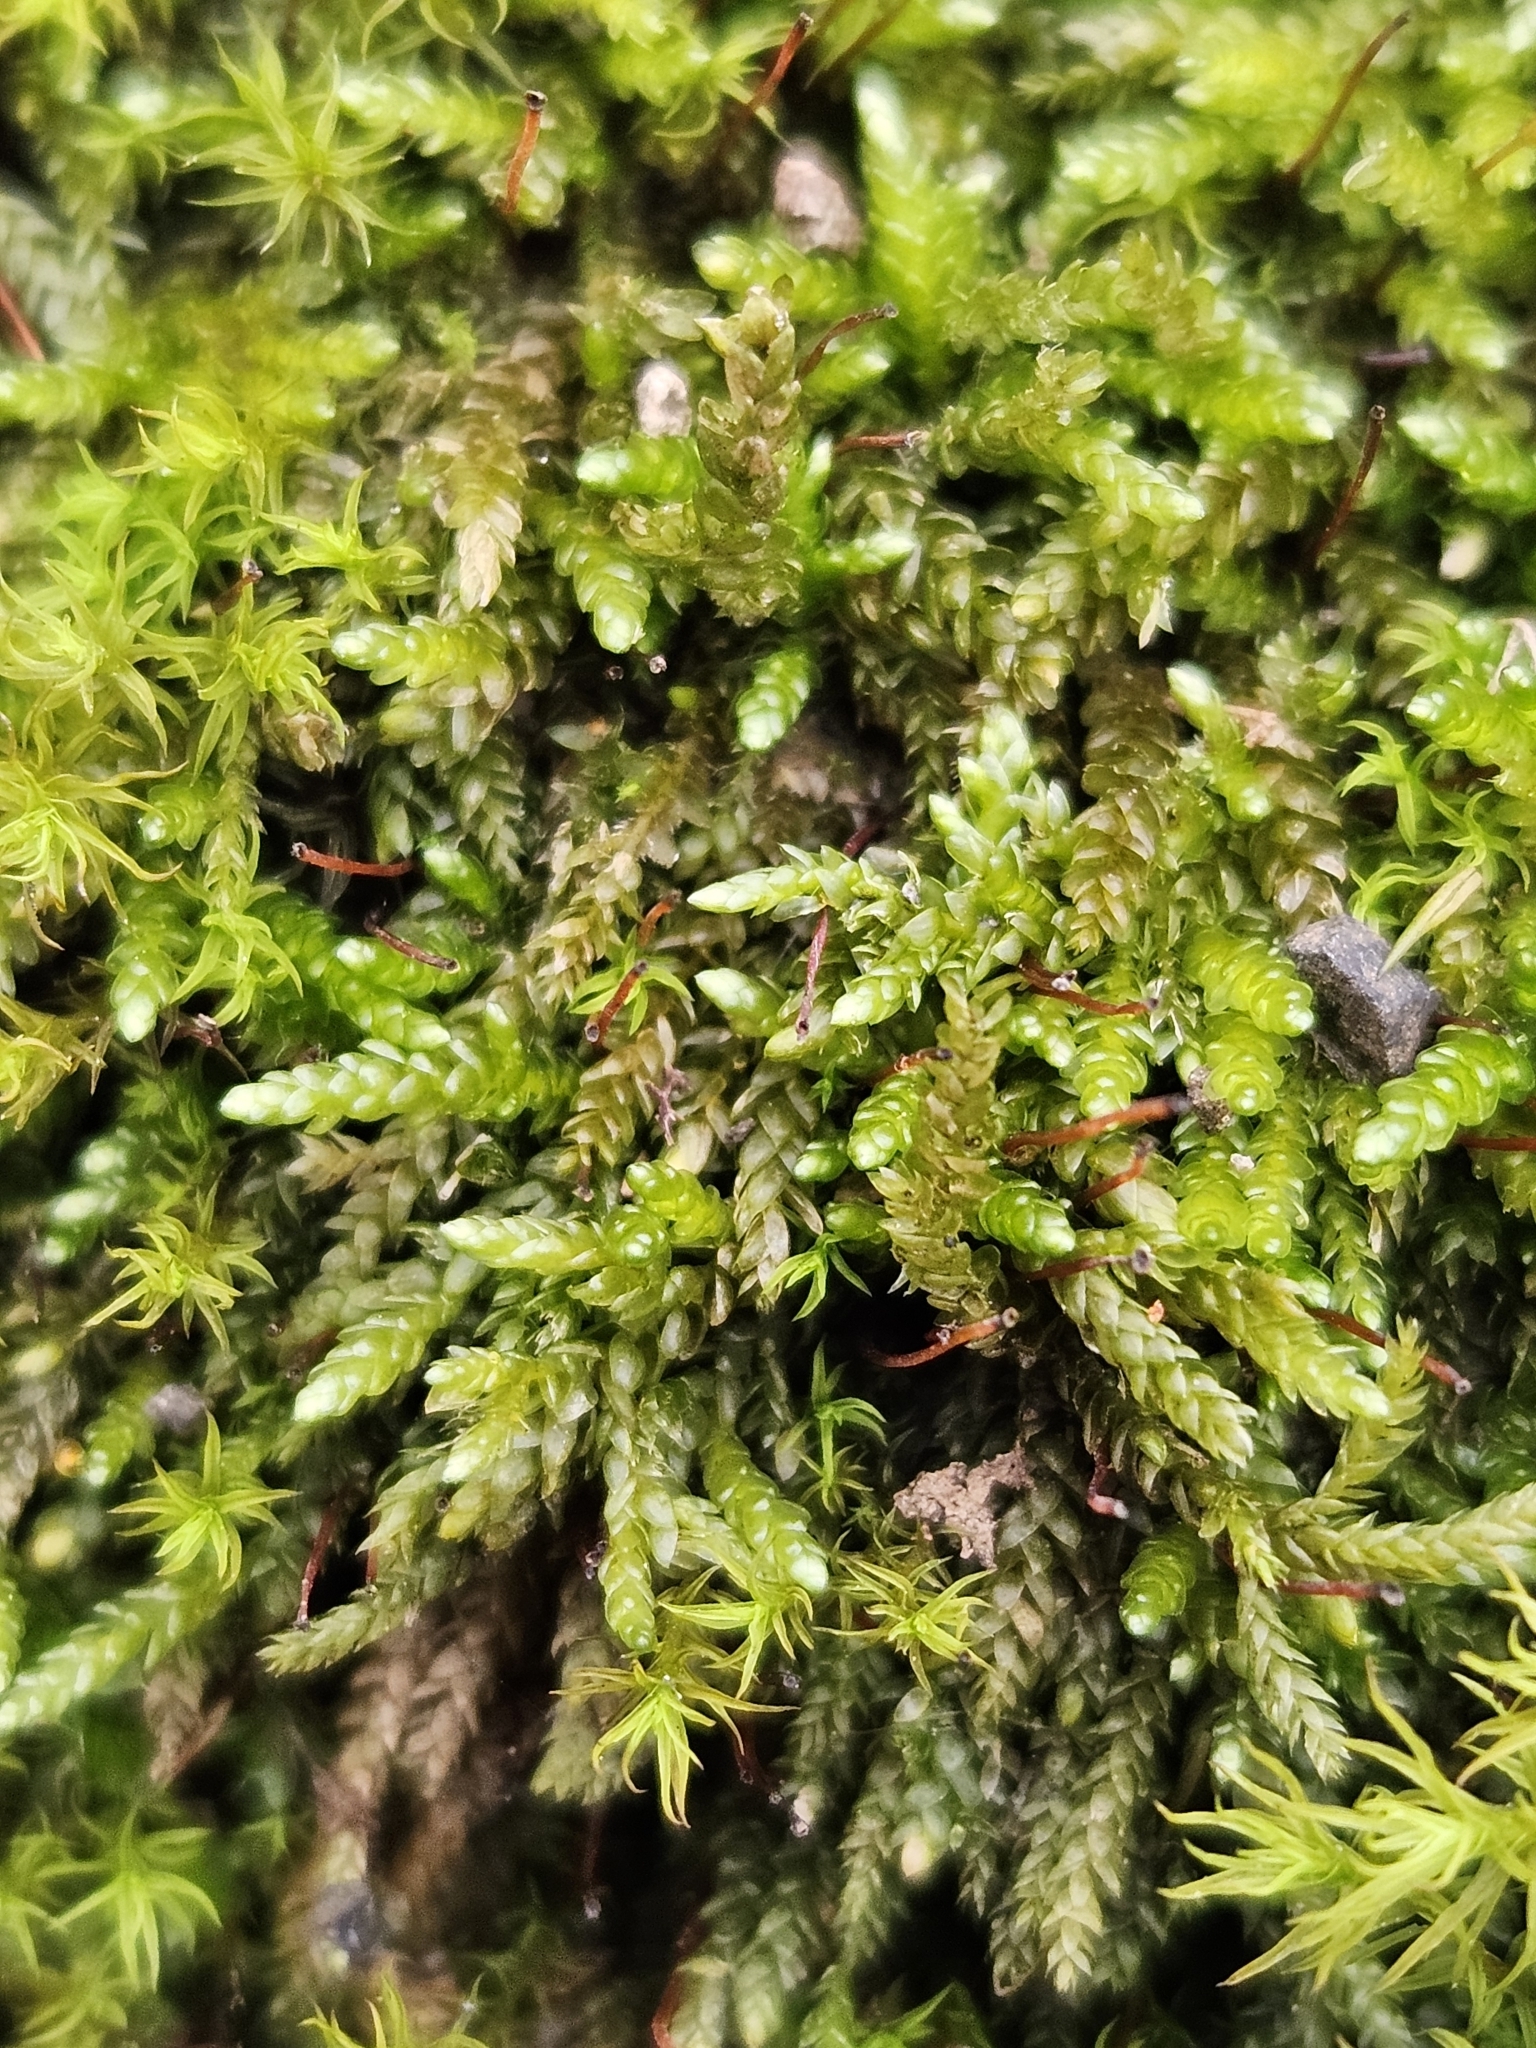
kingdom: Plantae
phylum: Bryophyta
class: Bryopsida
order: Hypnales
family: Brachytheciaceae
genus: Rhynchostegium
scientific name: Rhynchostegium murale
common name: Wall feather-moss
